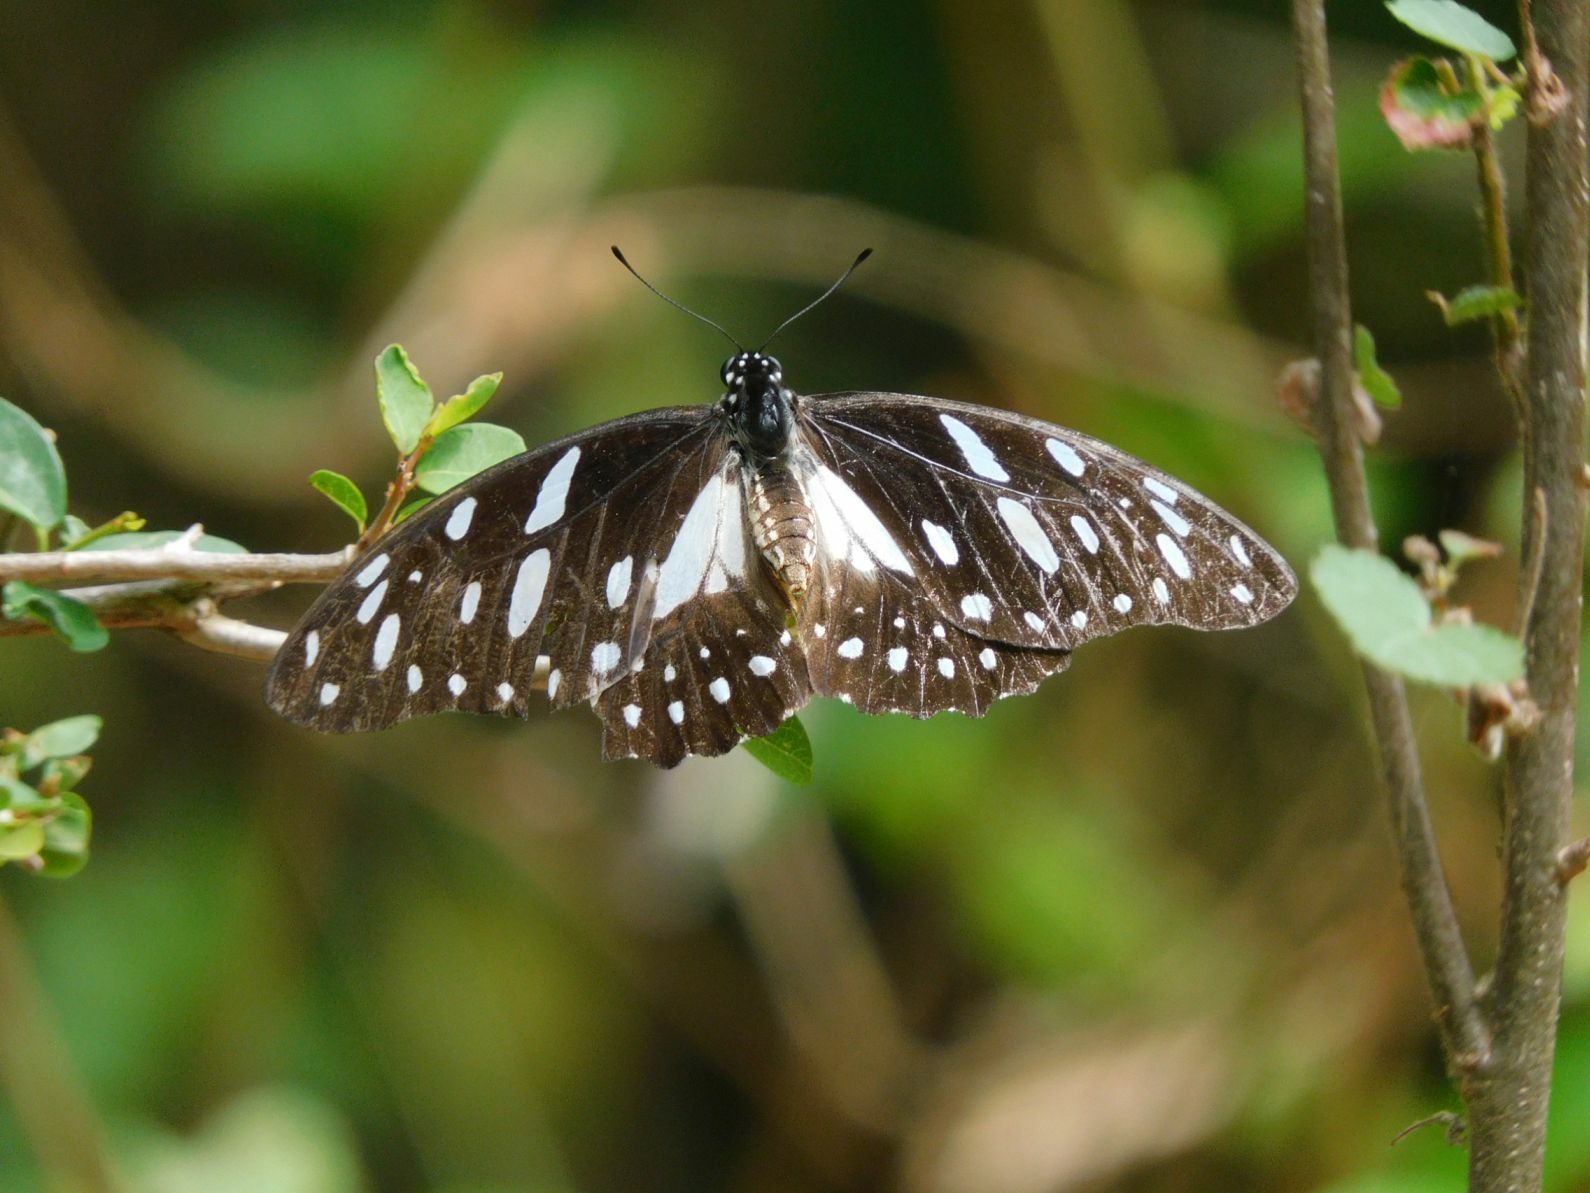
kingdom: Animalia
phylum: Arthropoda
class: Insecta
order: Lepidoptera
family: Papilionidae
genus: Graphium
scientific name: Graphium leonidas
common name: Common graphium
